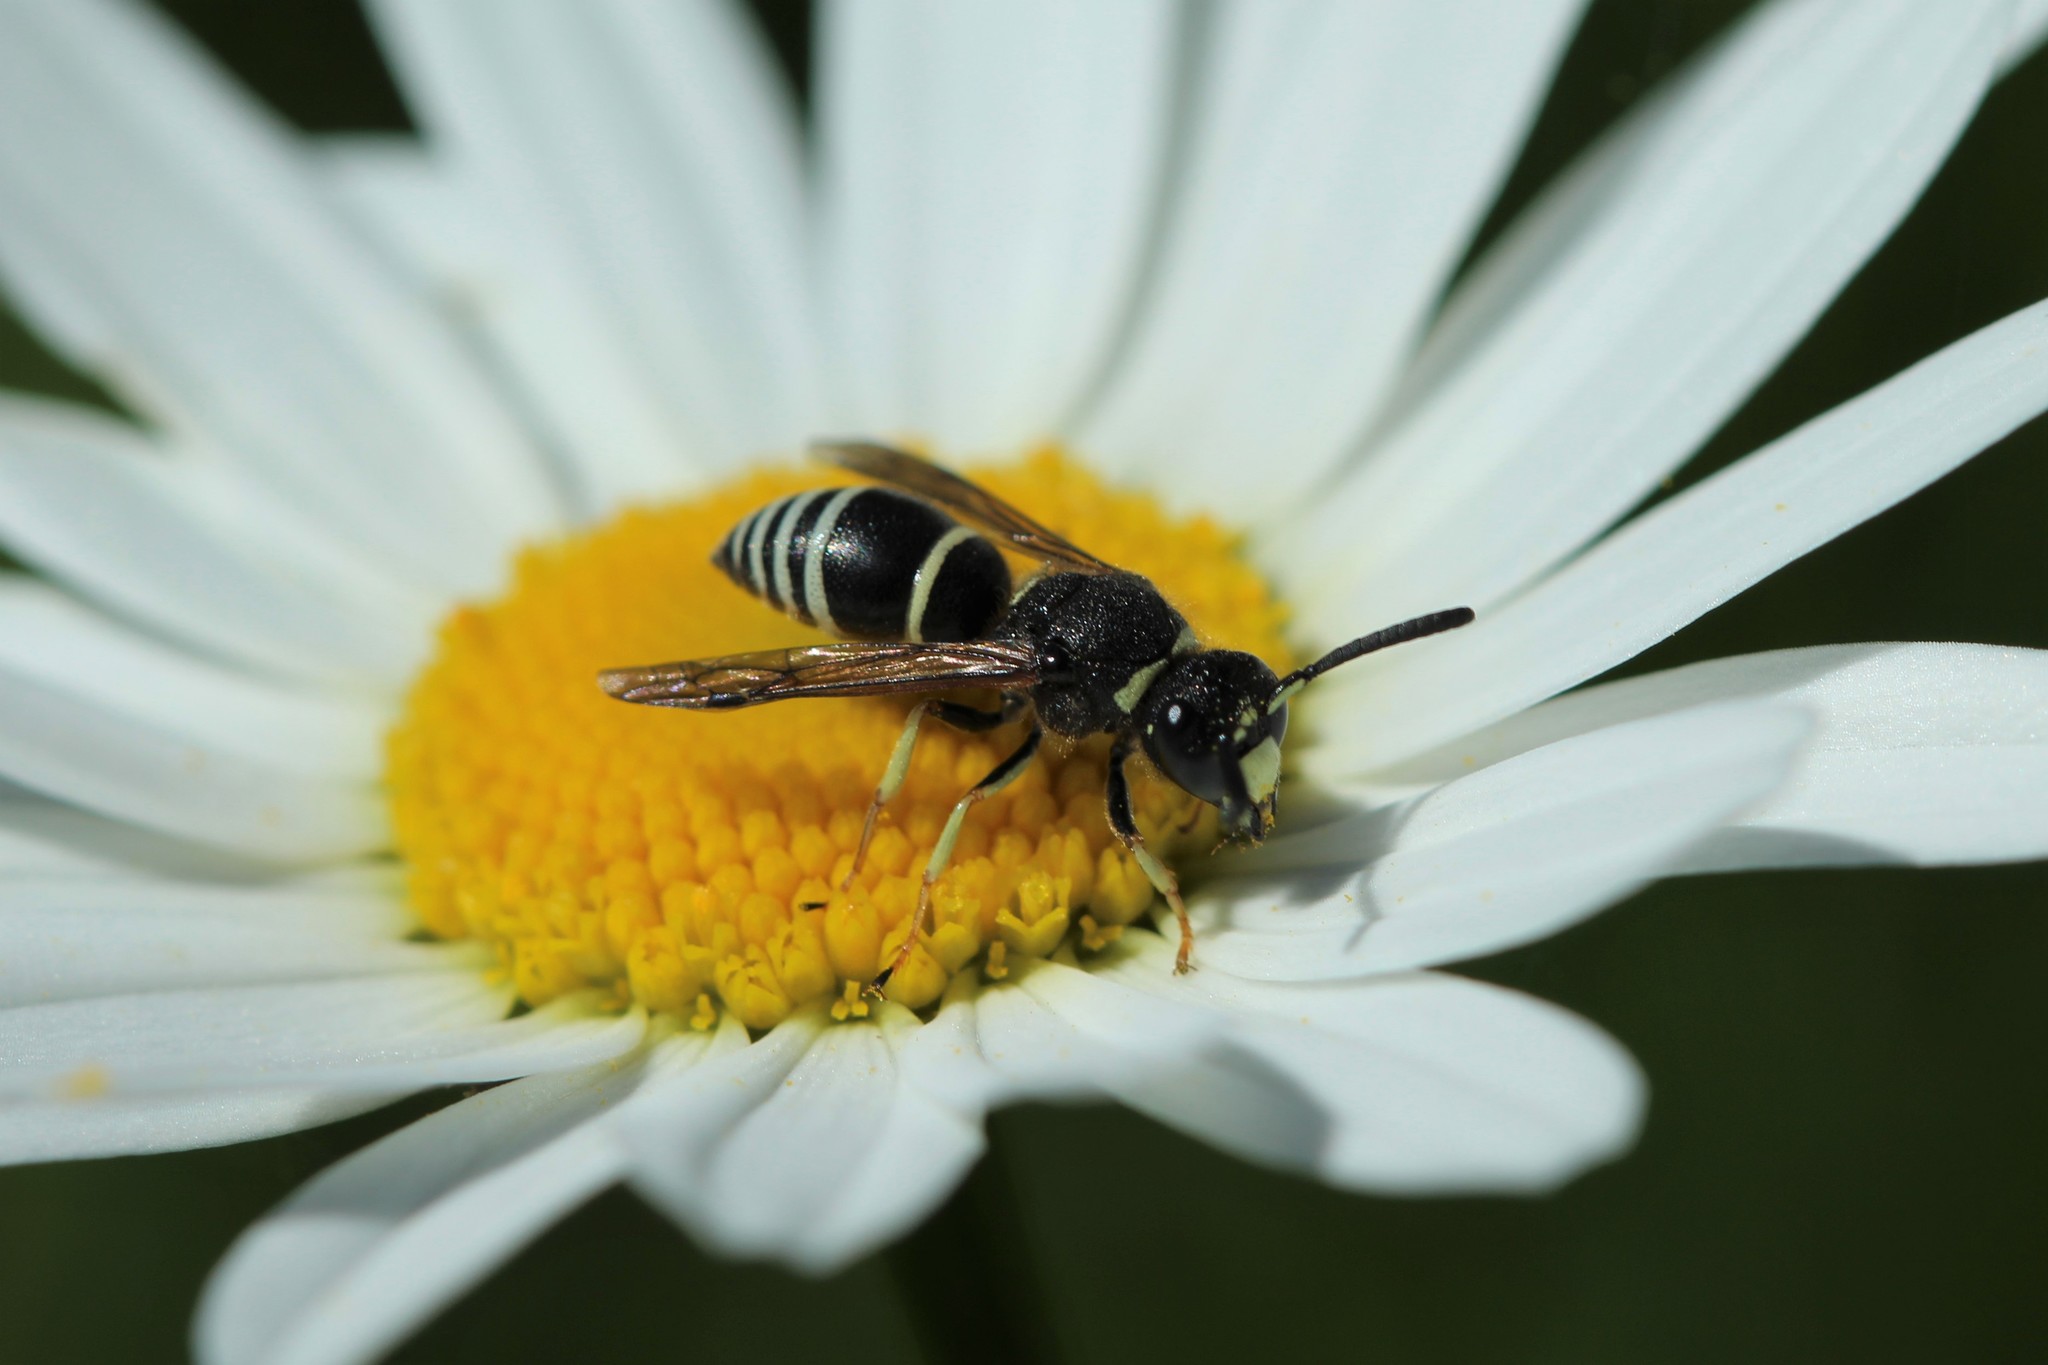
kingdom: Animalia
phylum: Arthropoda
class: Insecta
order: Hymenoptera
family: Eumenidae
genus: Euodynerus
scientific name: Euodynerus leucomelas
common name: Wasp
